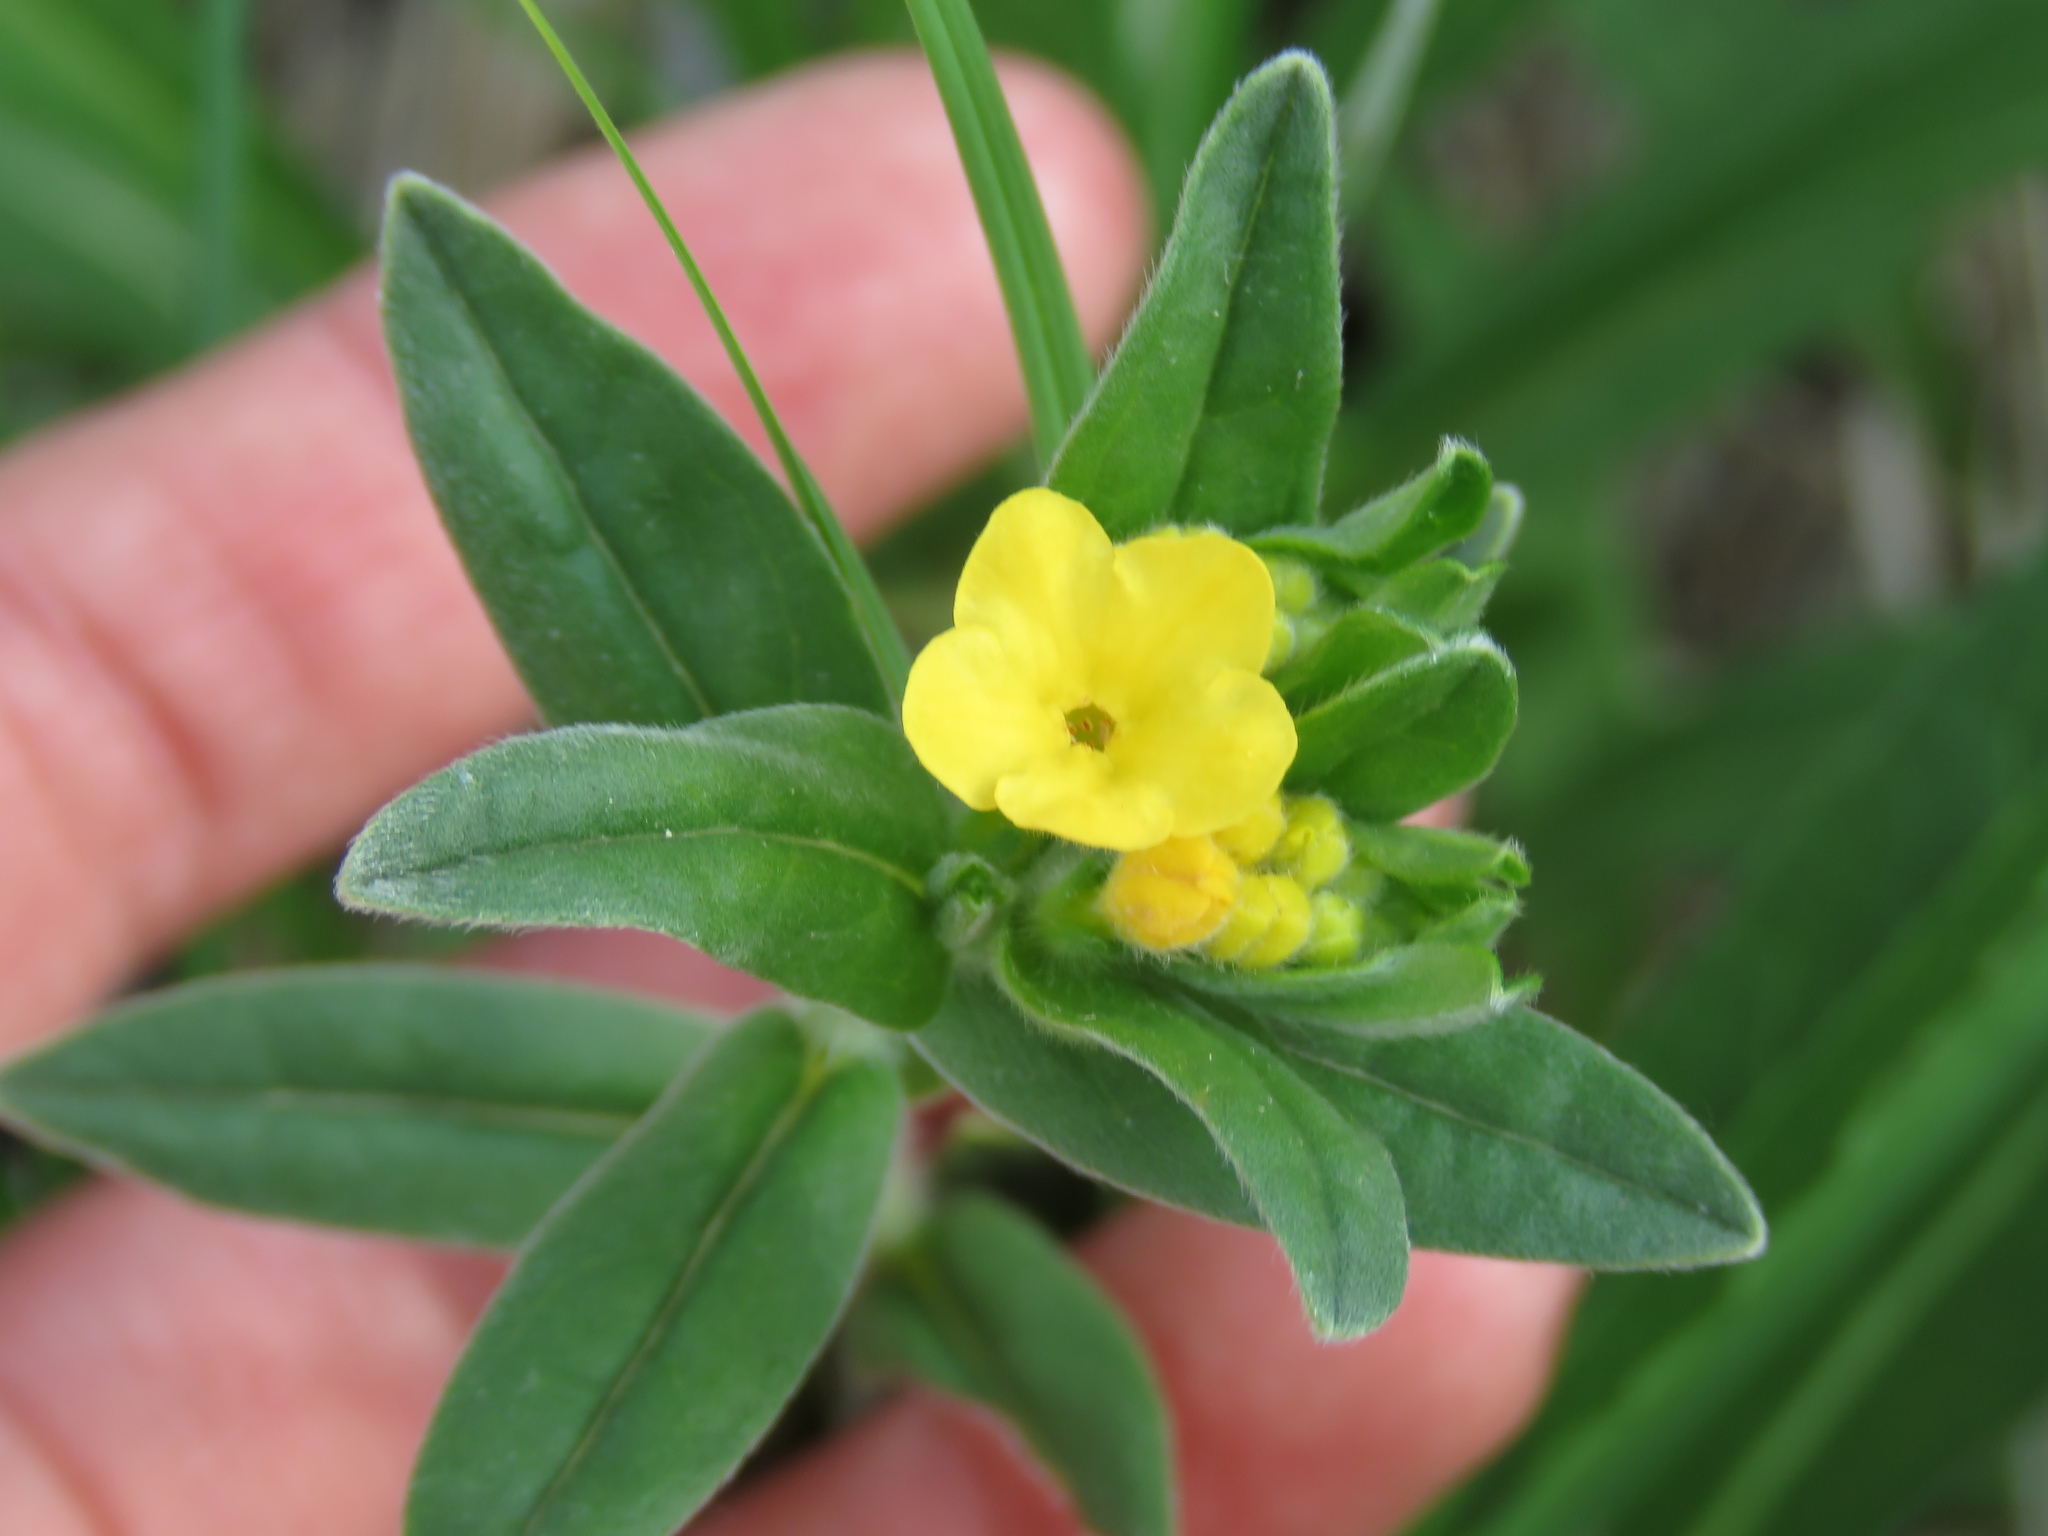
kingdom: Plantae
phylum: Tracheophyta
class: Magnoliopsida
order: Boraginales
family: Boraginaceae
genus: Lithospermum
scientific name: Lithospermum canescens
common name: Hoary puccoon
